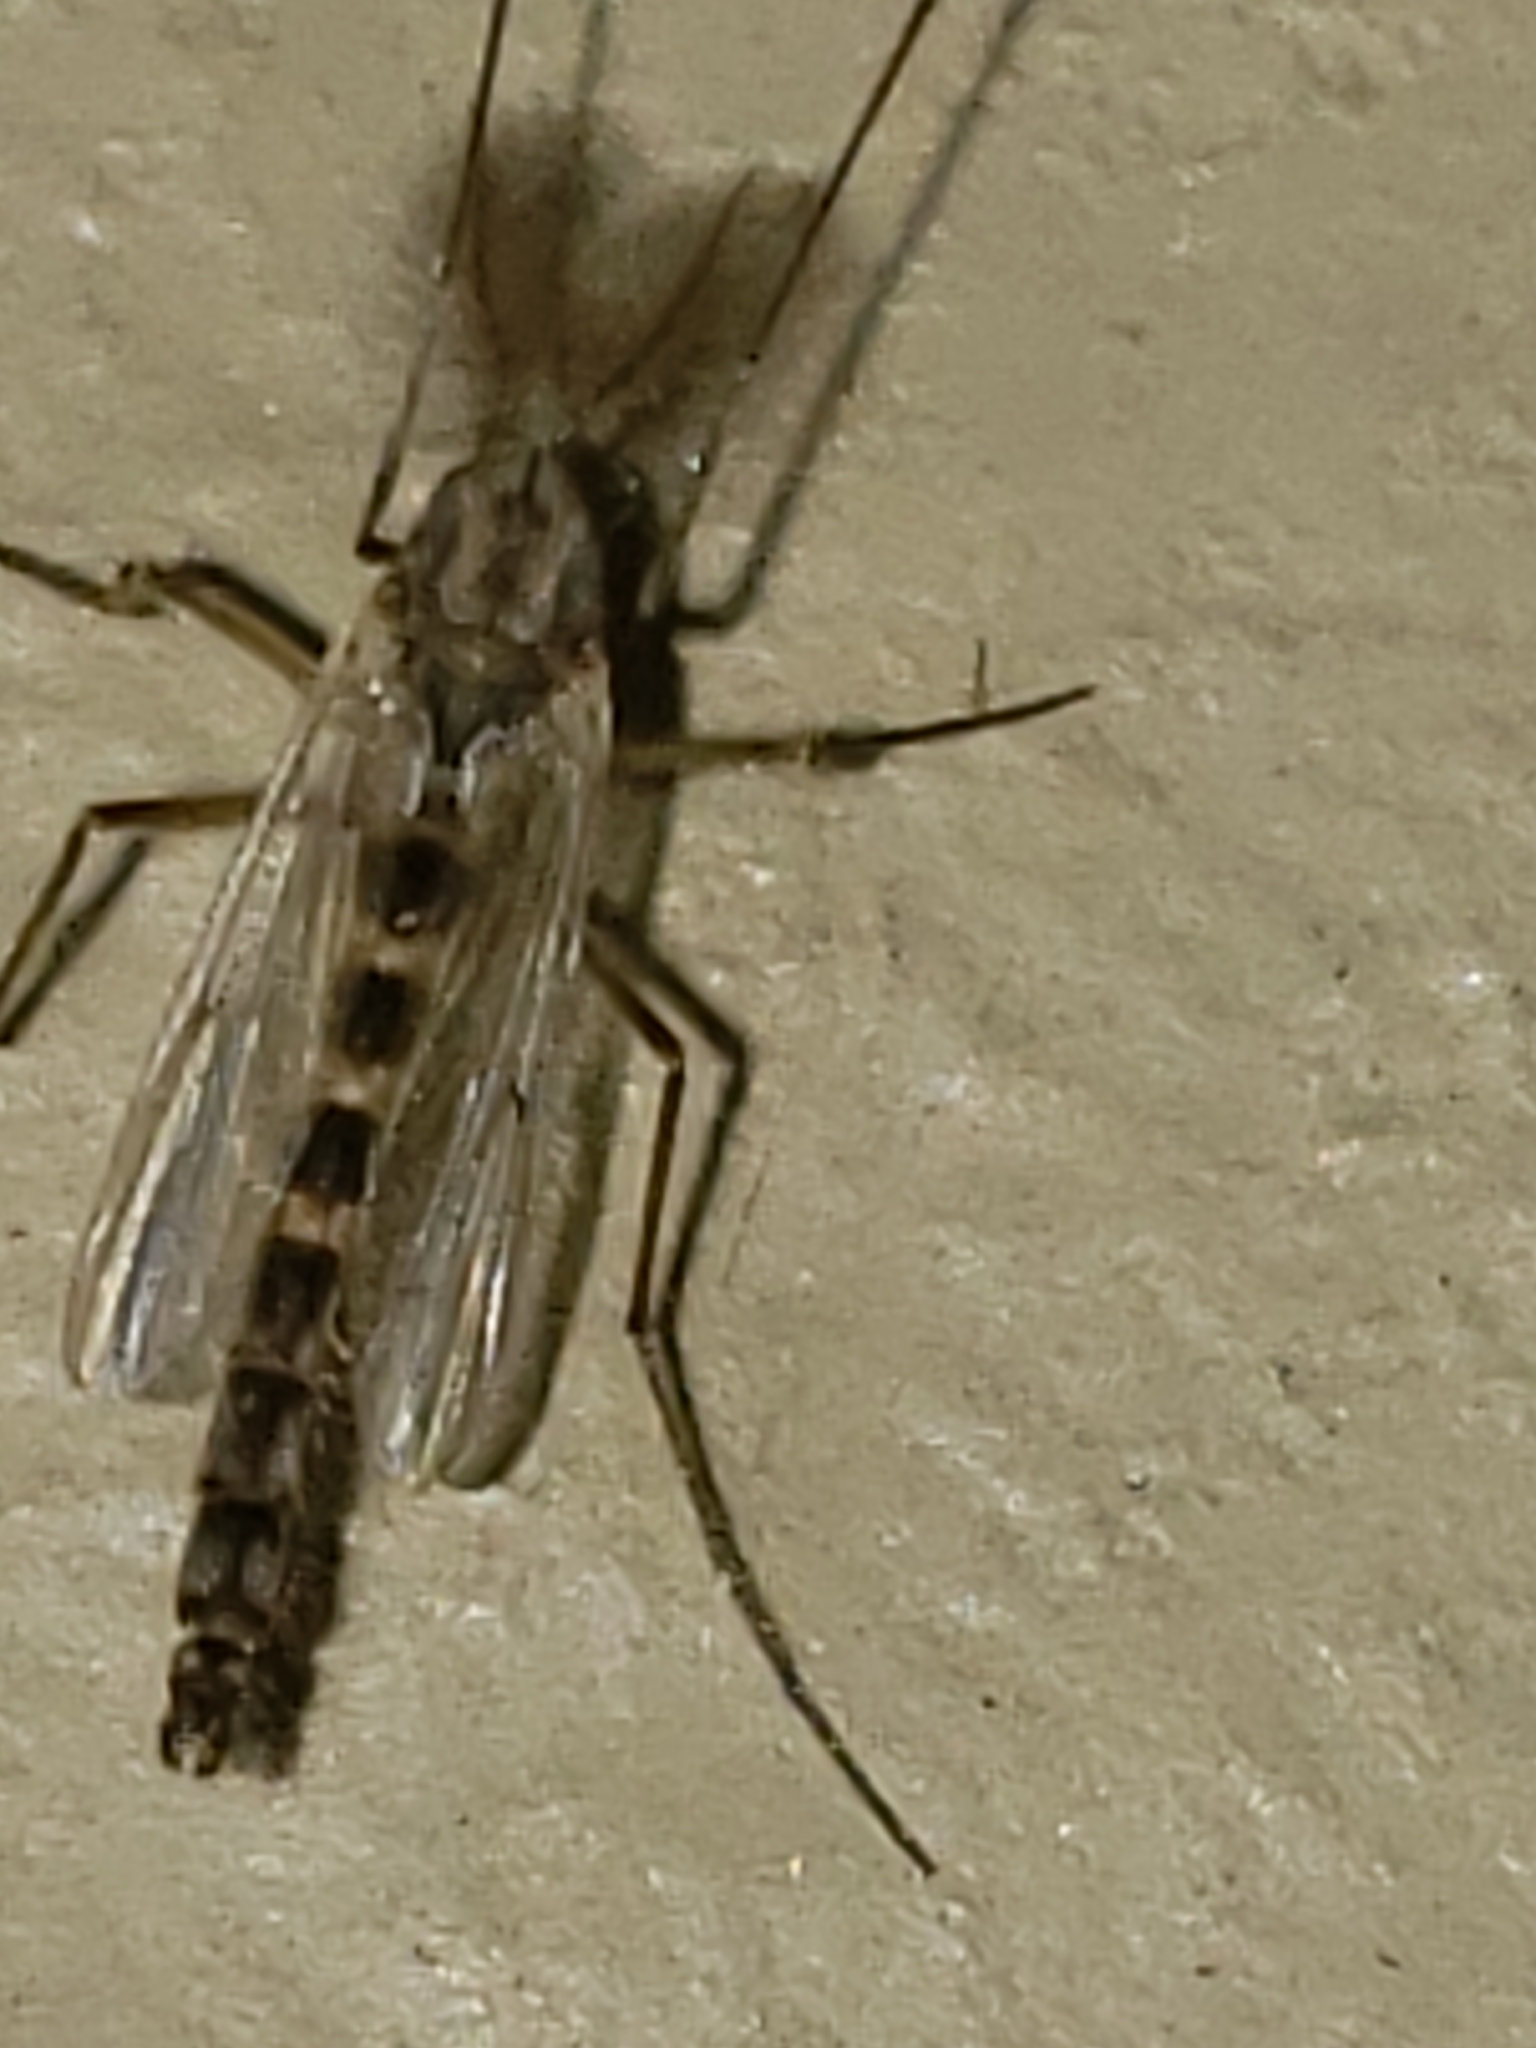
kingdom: Animalia
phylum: Arthropoda
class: Insecta
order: Diptera
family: Chironomidae
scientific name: Chironomidae
